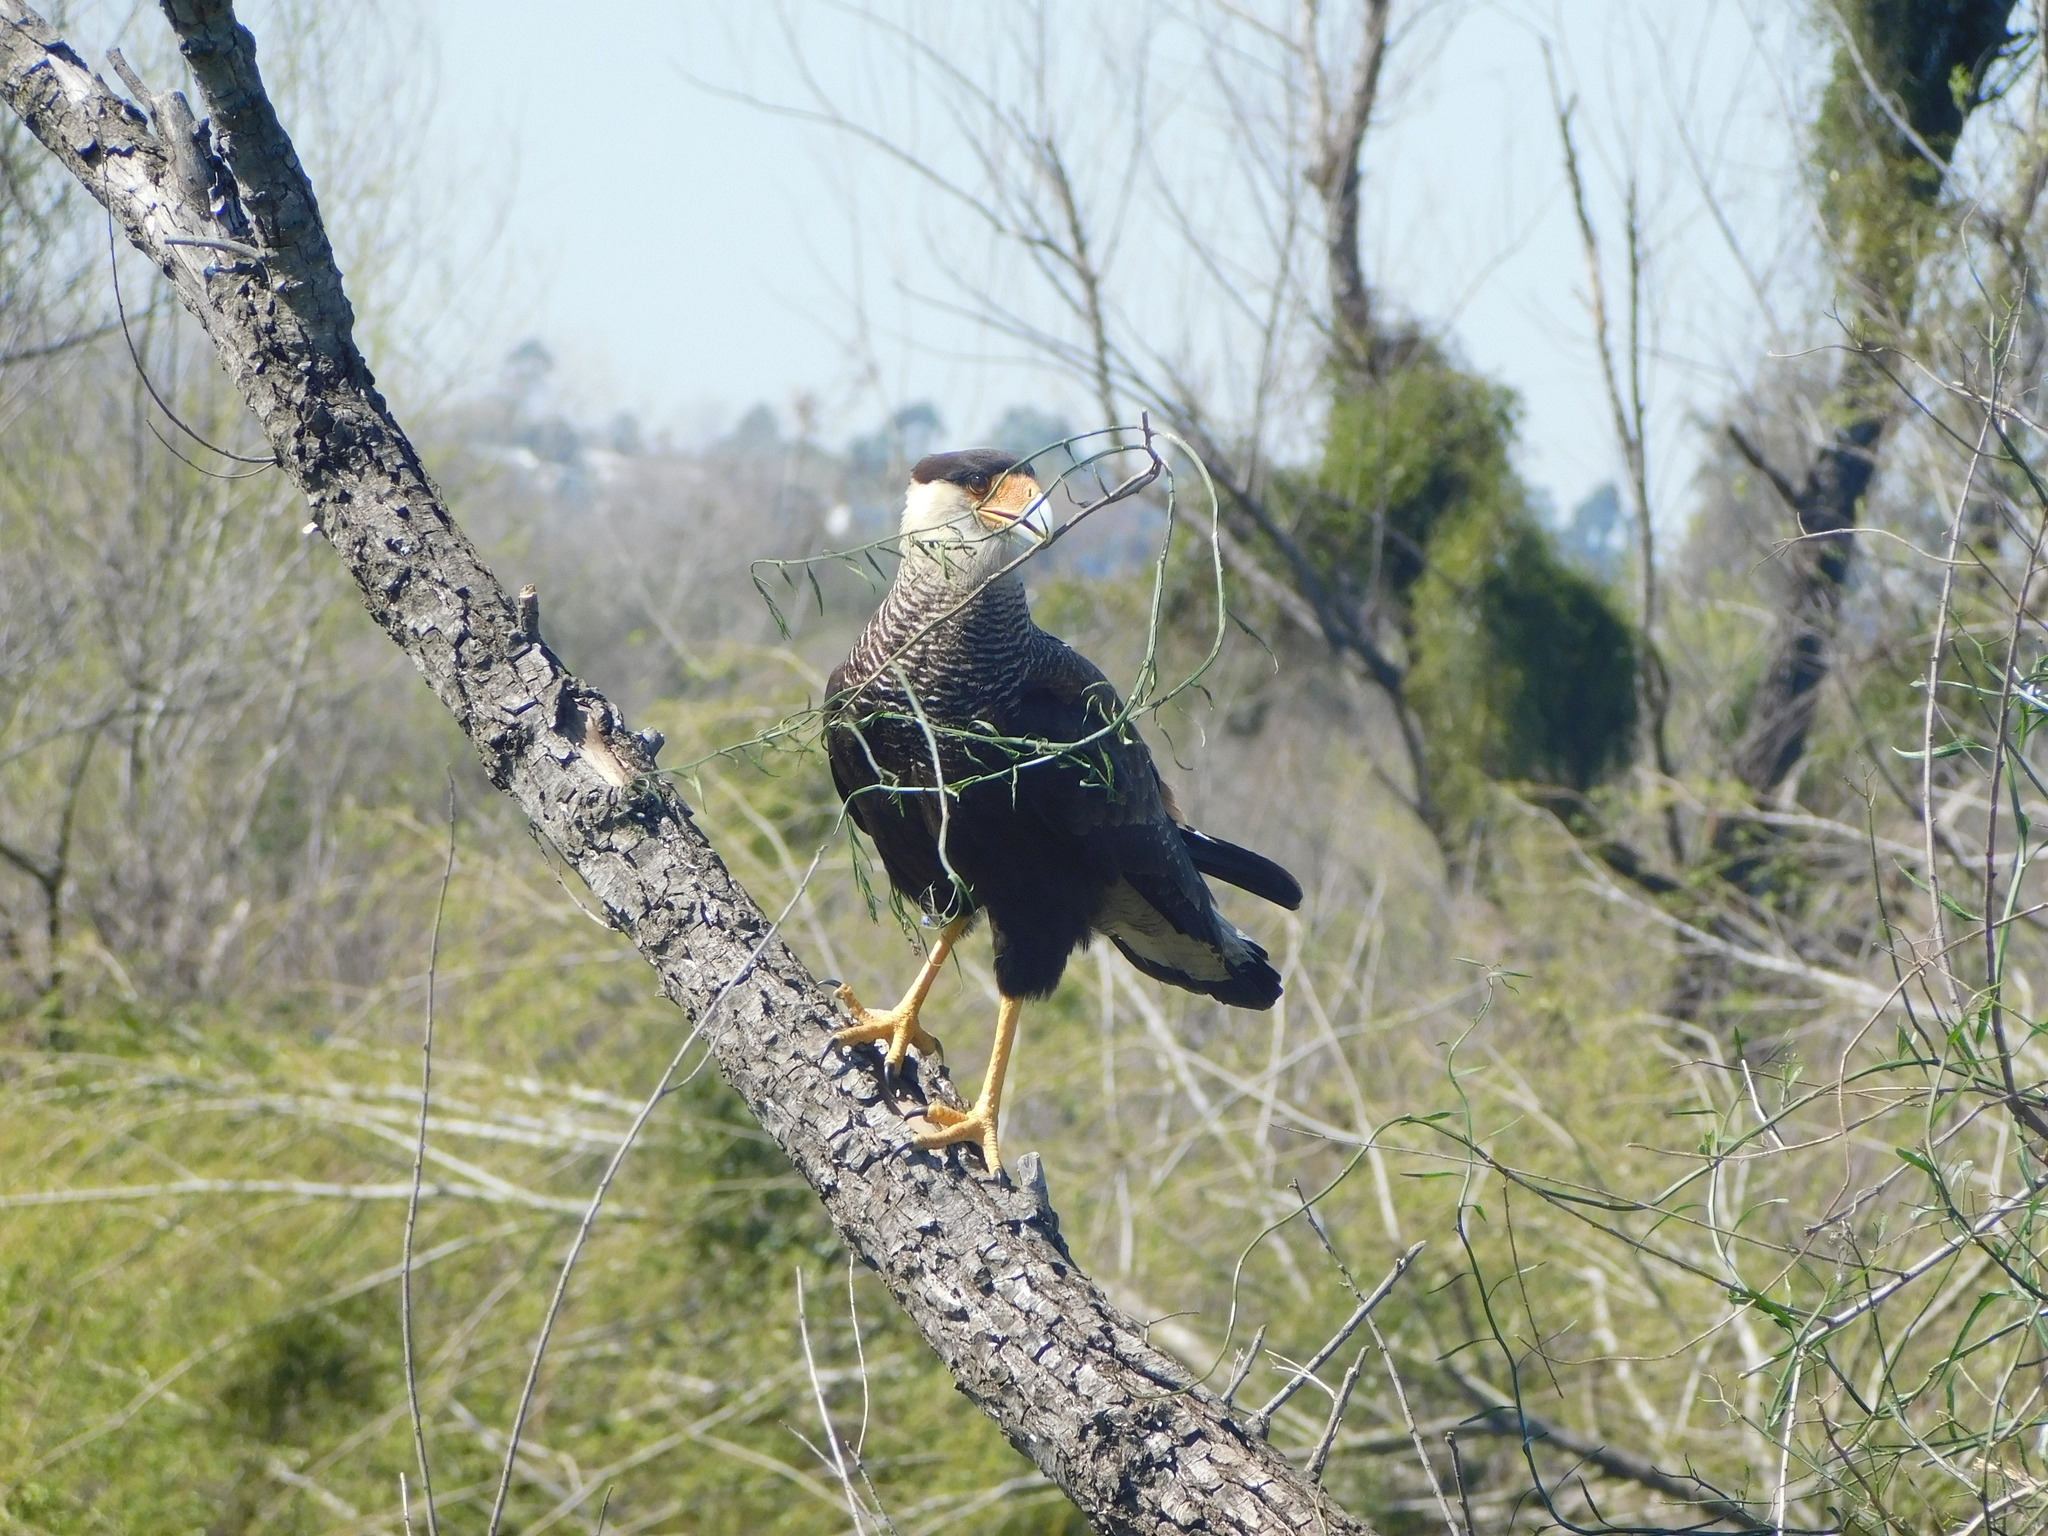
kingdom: Animalia
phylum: Chordata
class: Aves
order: Falconiformes
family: Falconidae
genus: Caracara
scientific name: Caracara plancus
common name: Southern caracara
